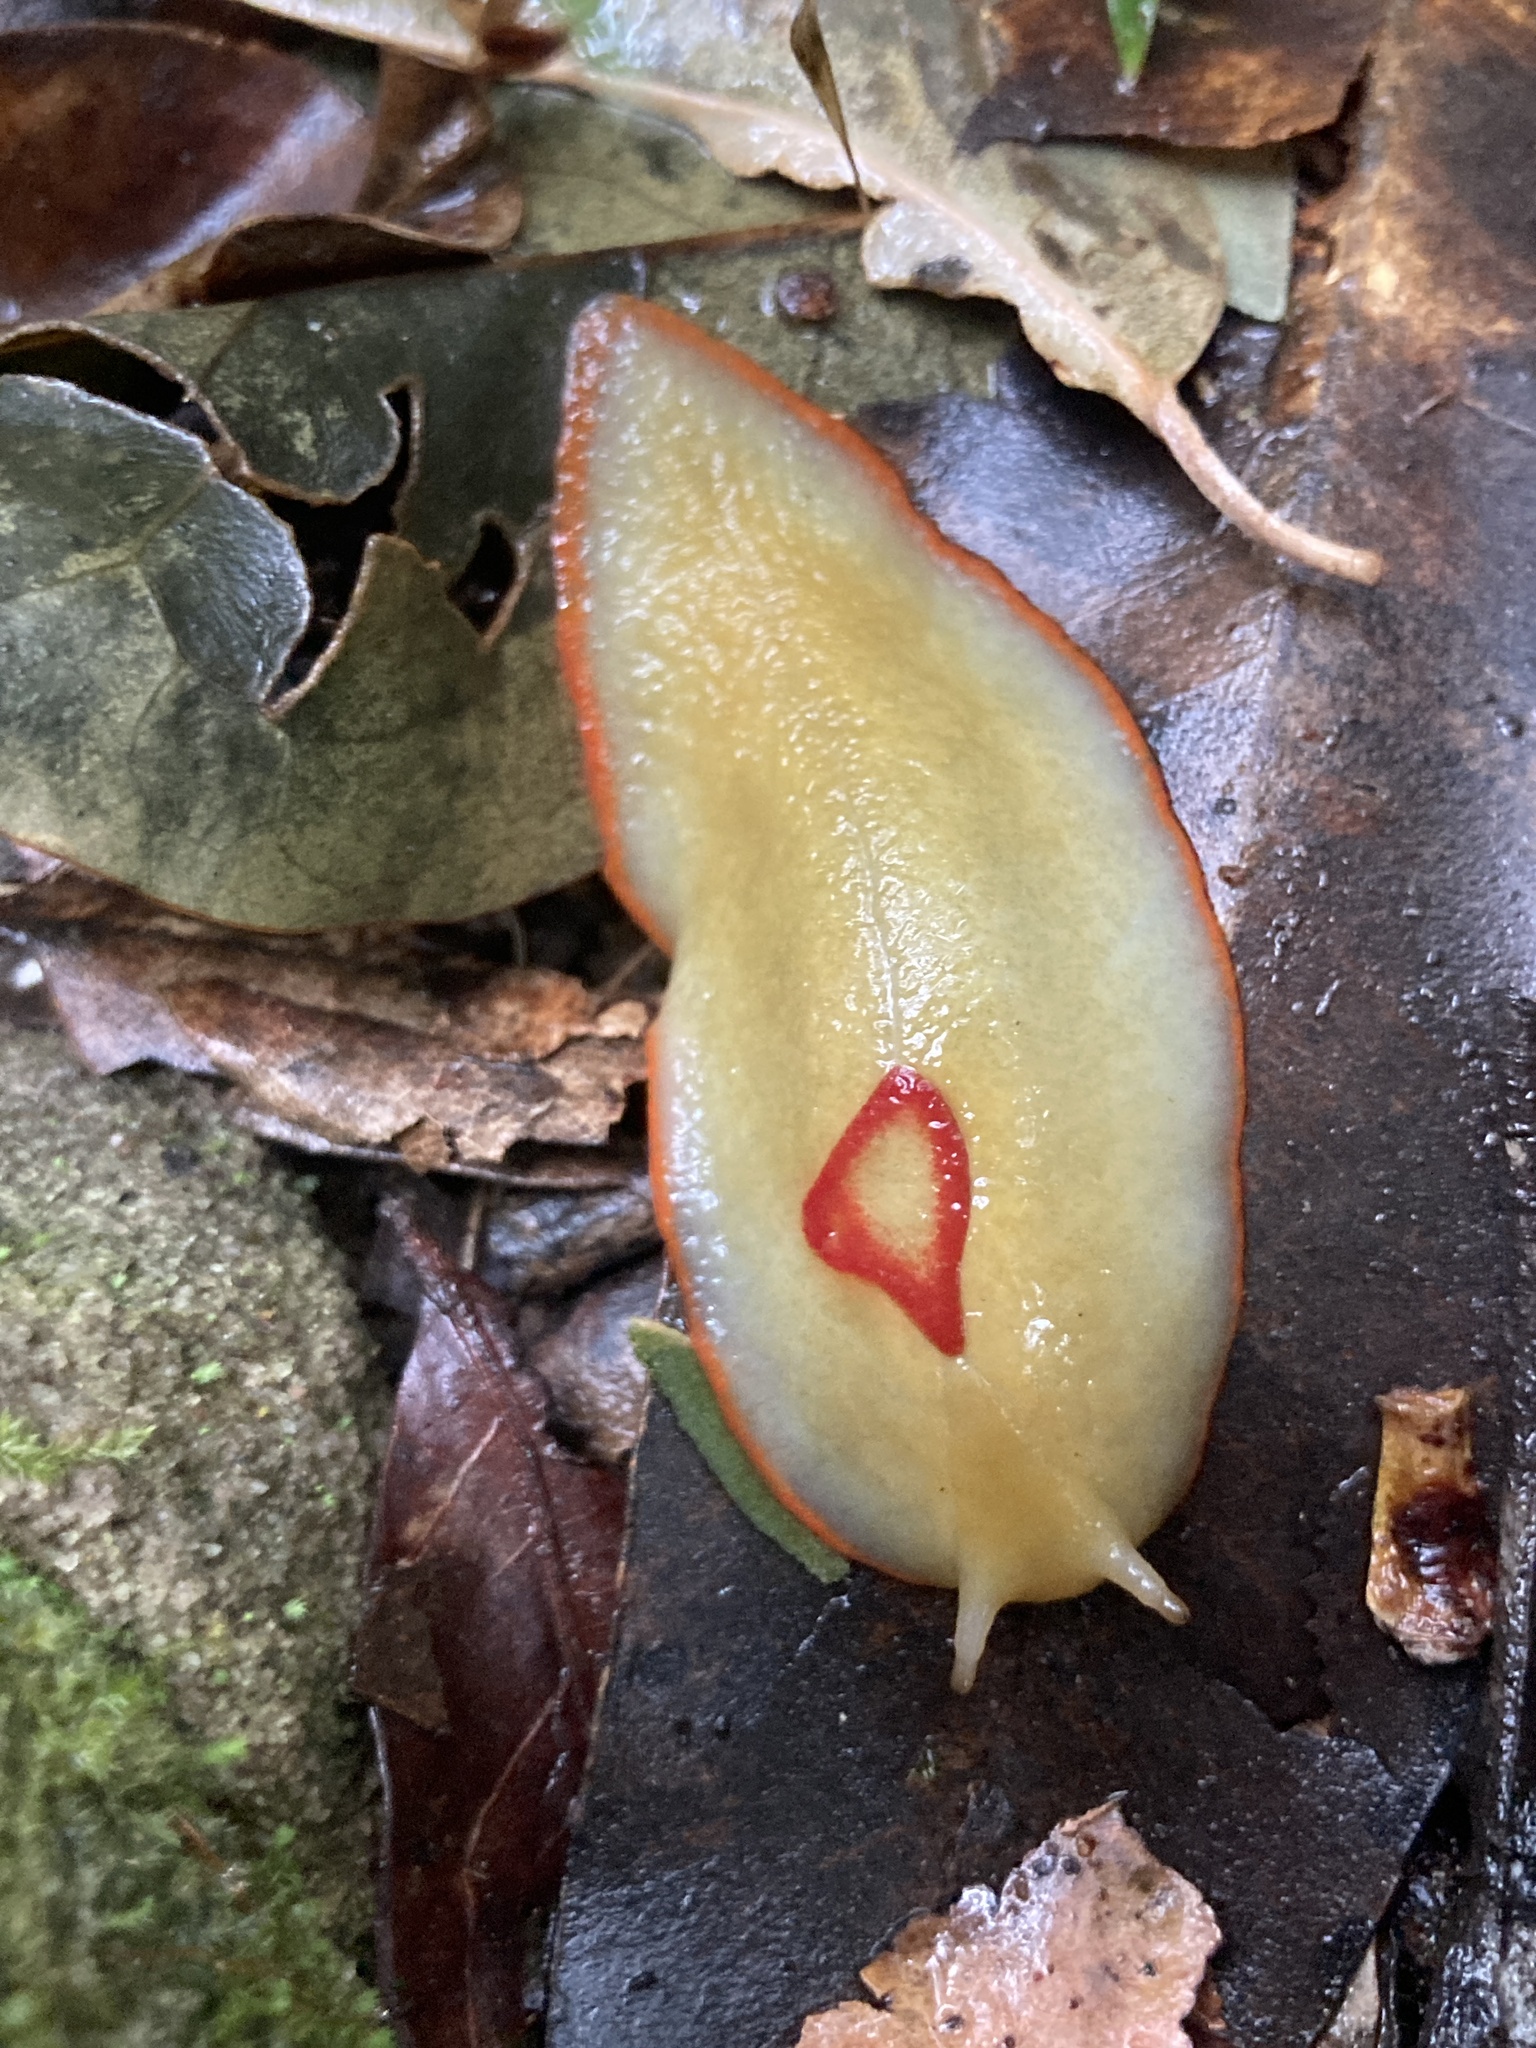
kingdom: Animalia
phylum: Mollusca
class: Gastropoda
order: Stylommatophora
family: Athoracophoridae
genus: Triboniophorus
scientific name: Triboniophorus graeffei
